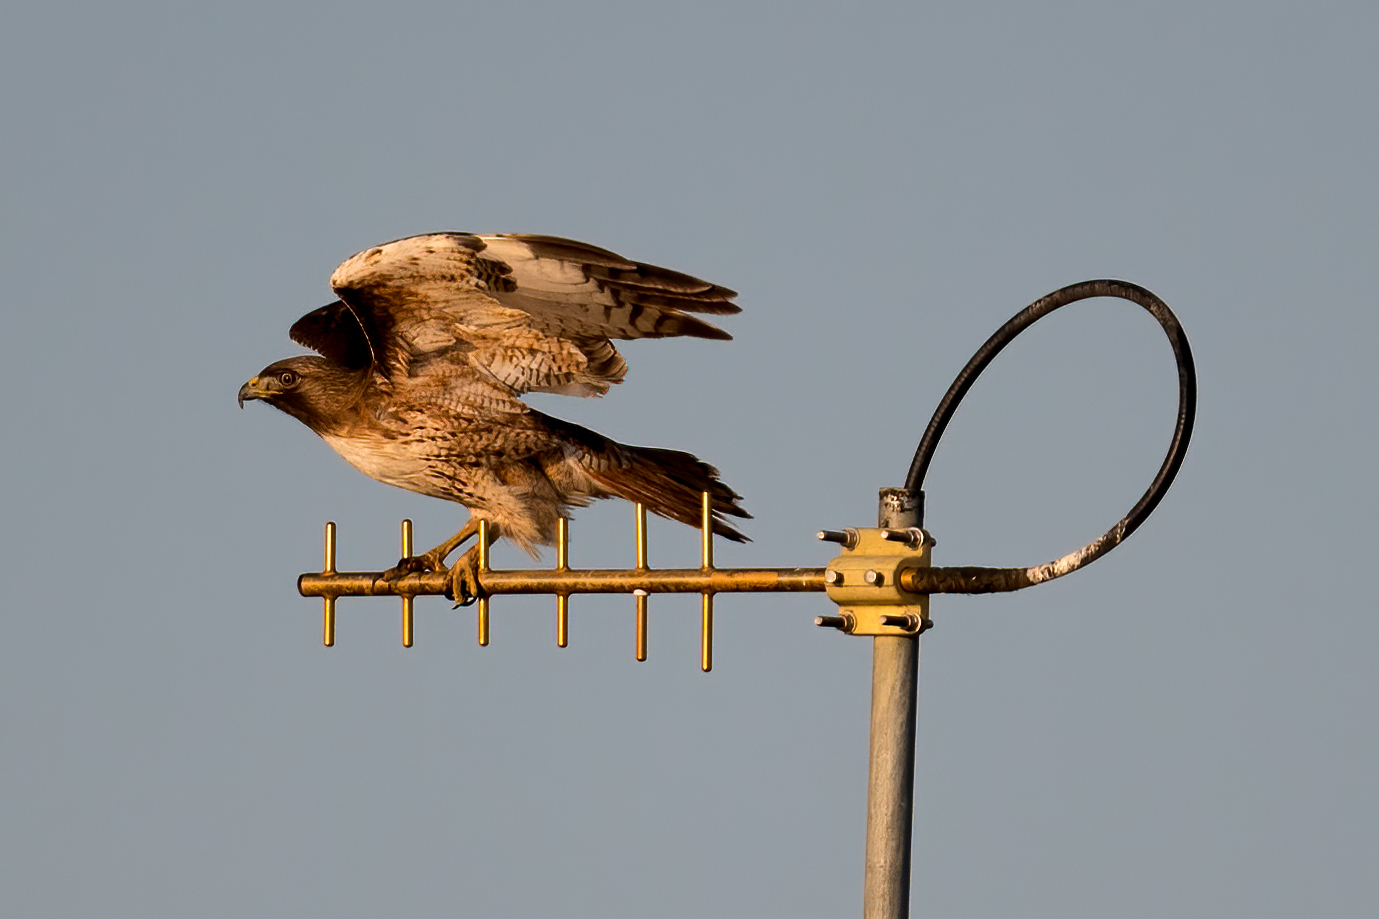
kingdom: Animalia
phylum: Chordata
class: Aves
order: Accipitriformes
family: Accipitridae
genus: Buteo
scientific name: Buteo jamaicensis
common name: Red-tailed hawk
